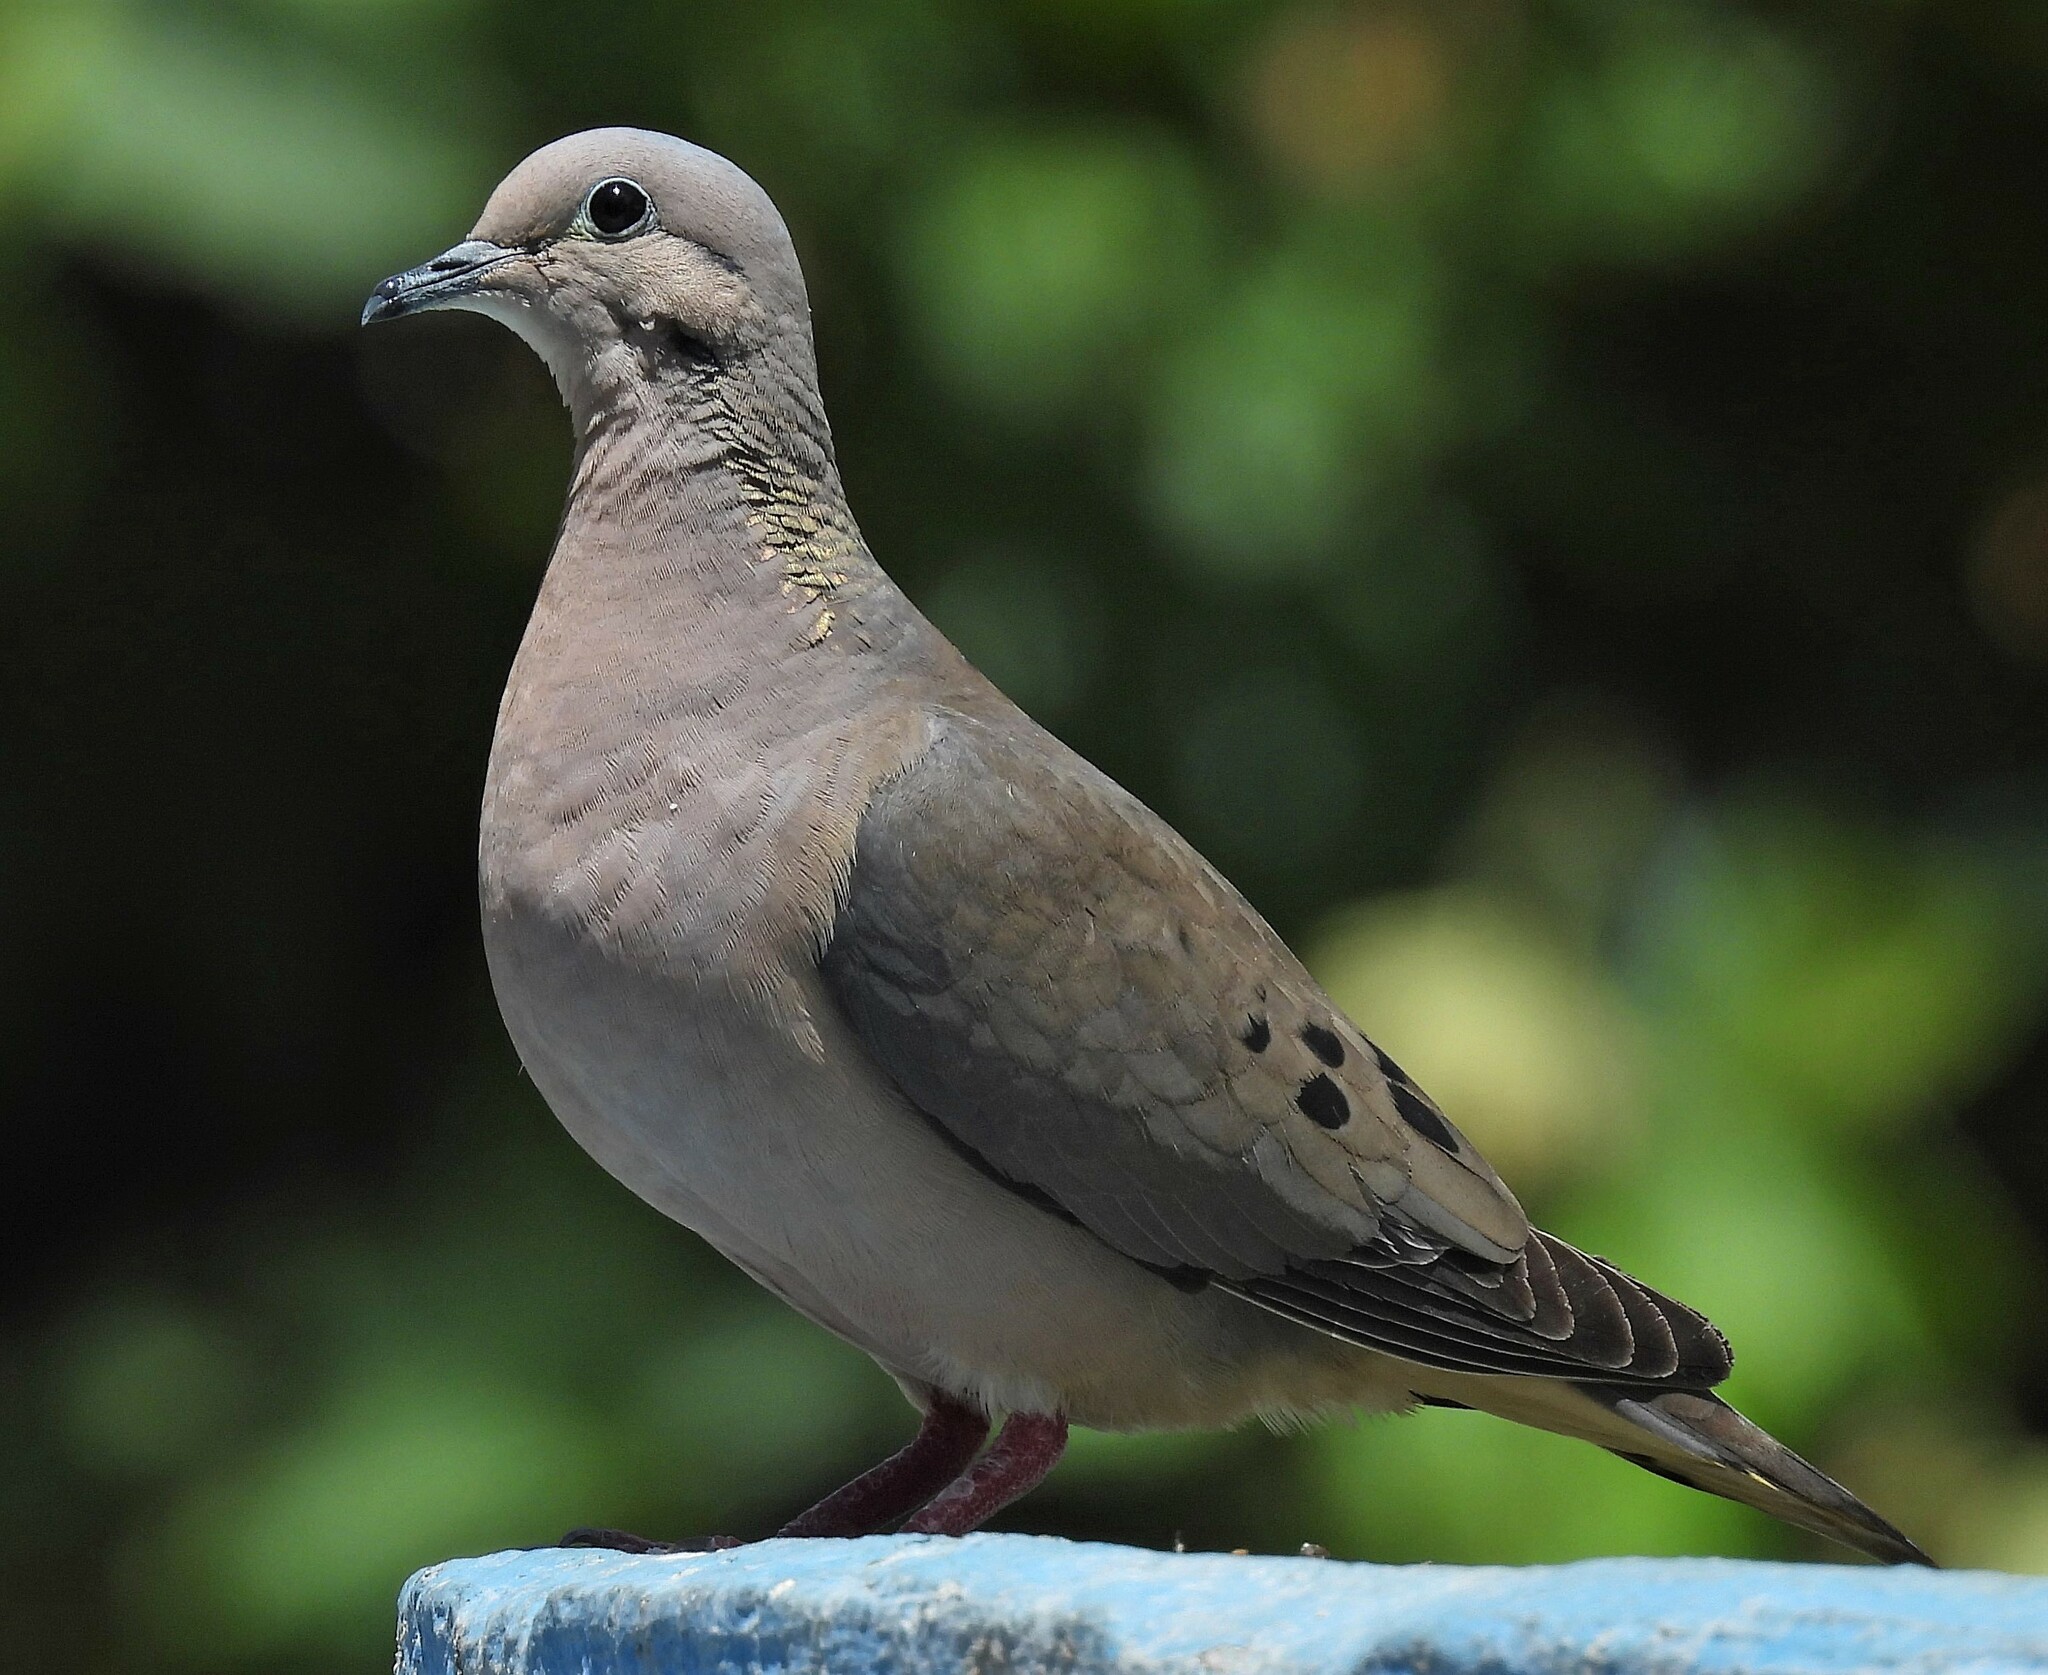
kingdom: Animalia
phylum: Chordata
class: Aves
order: Columbiformes
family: Columbidae
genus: Zenaida
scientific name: Zenaida auriculata
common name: Eared dove
